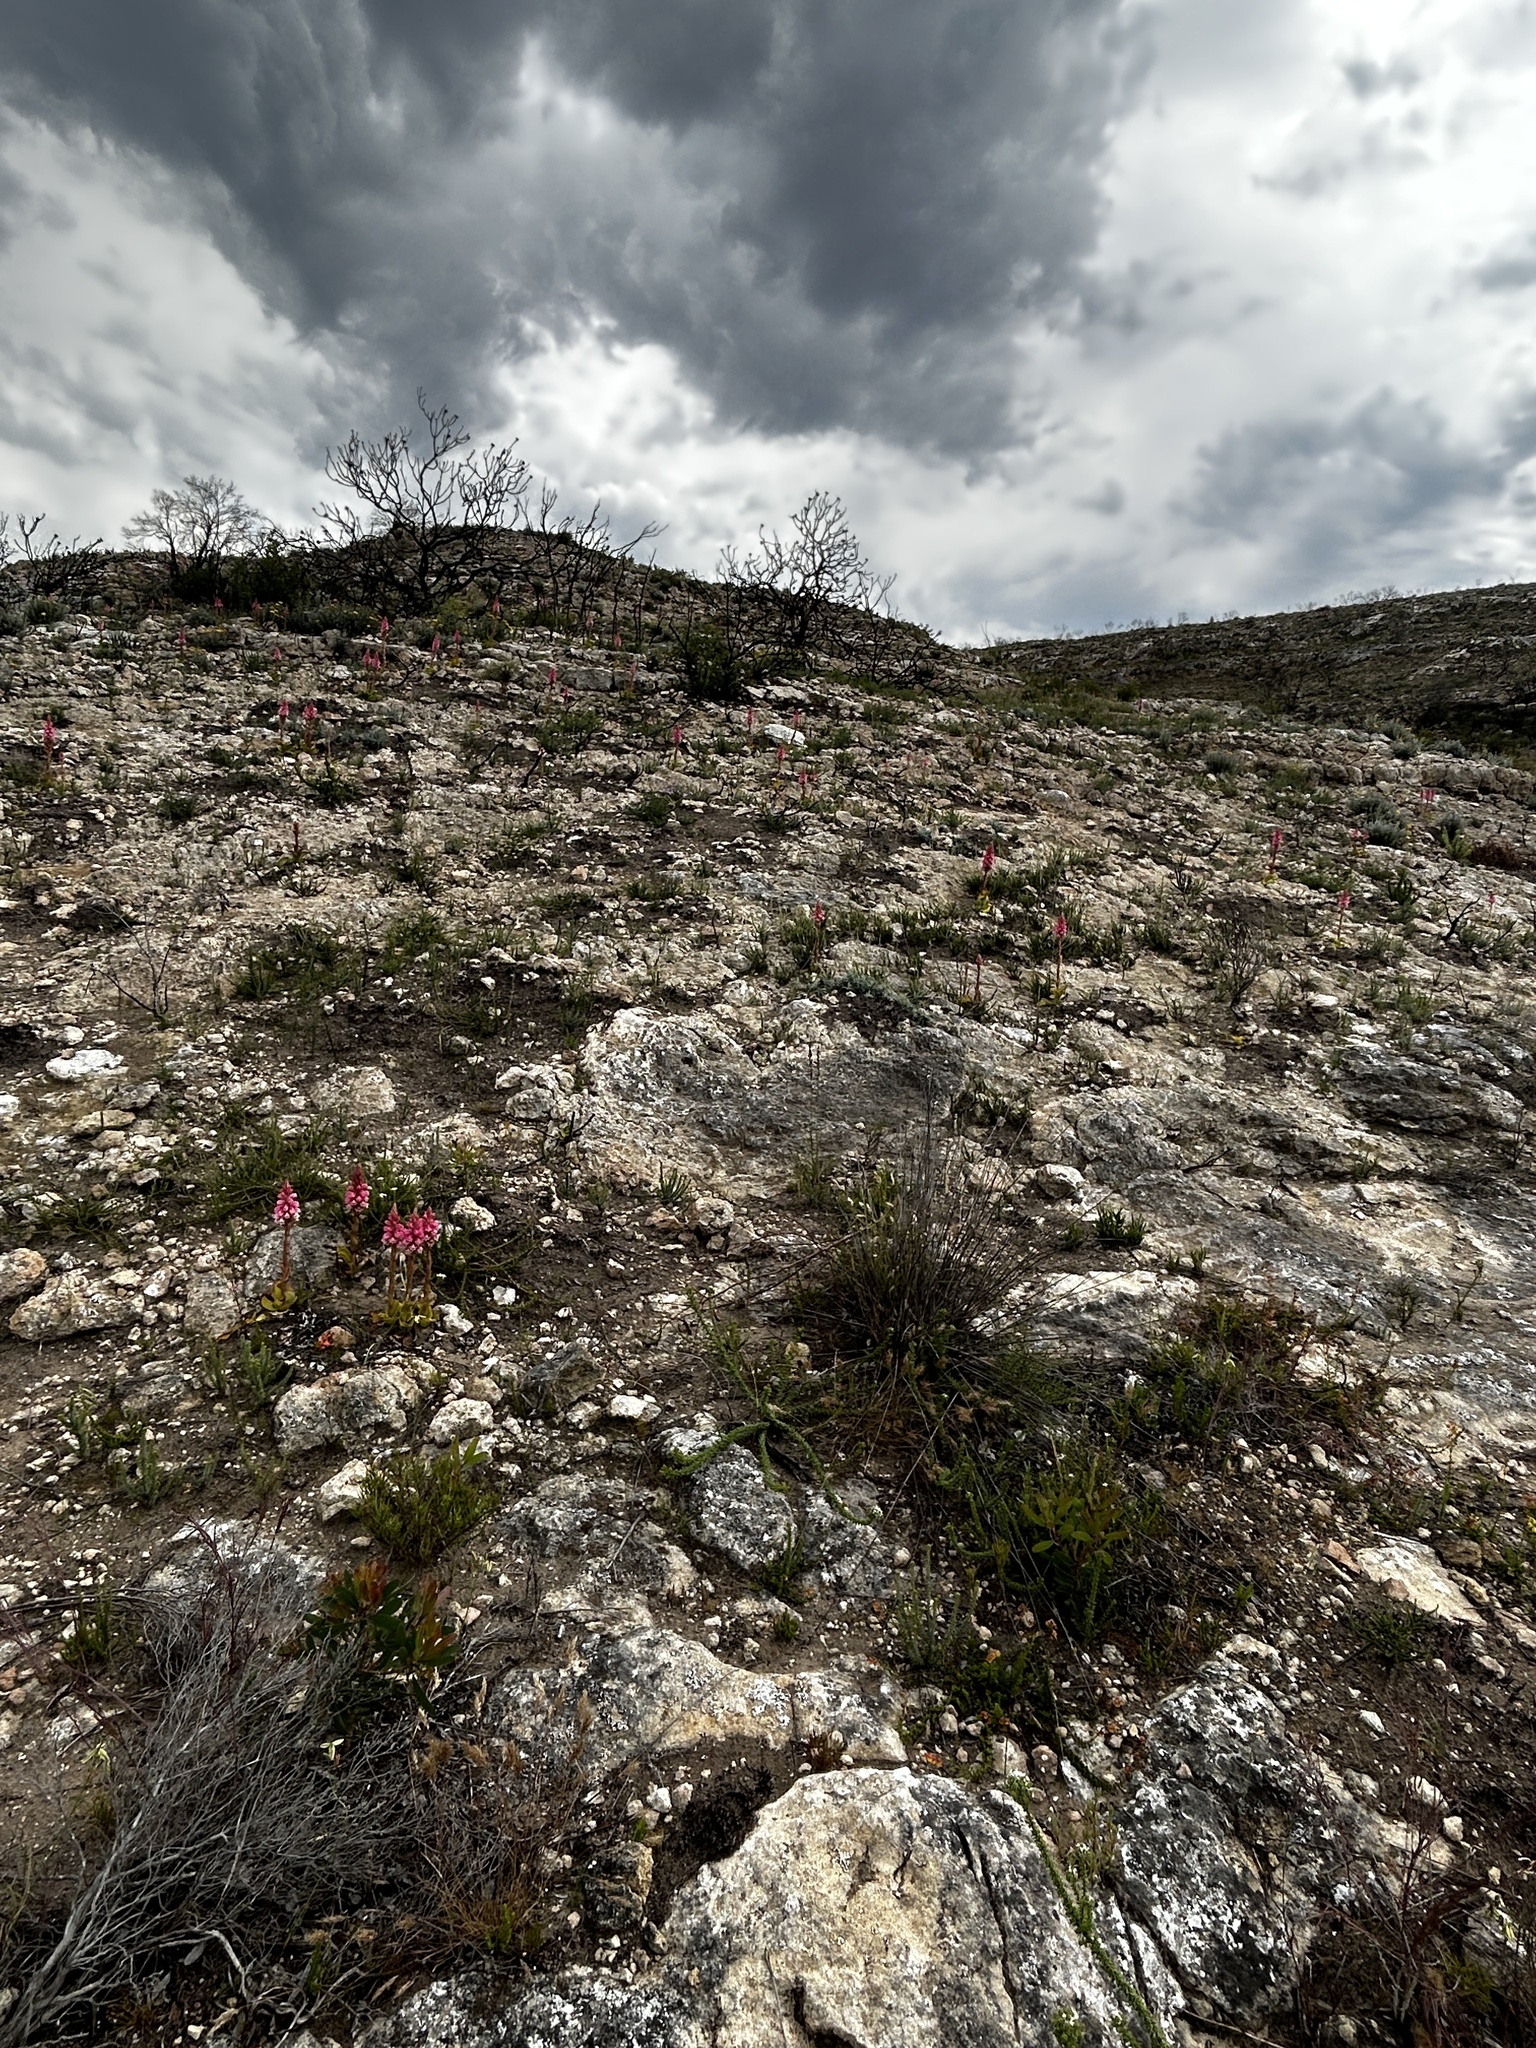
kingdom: Plantae
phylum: Tracheophyta
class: Liliopsida
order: Asparagales
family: Orchidaceae
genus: Satyrium
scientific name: Satyrium carneum
